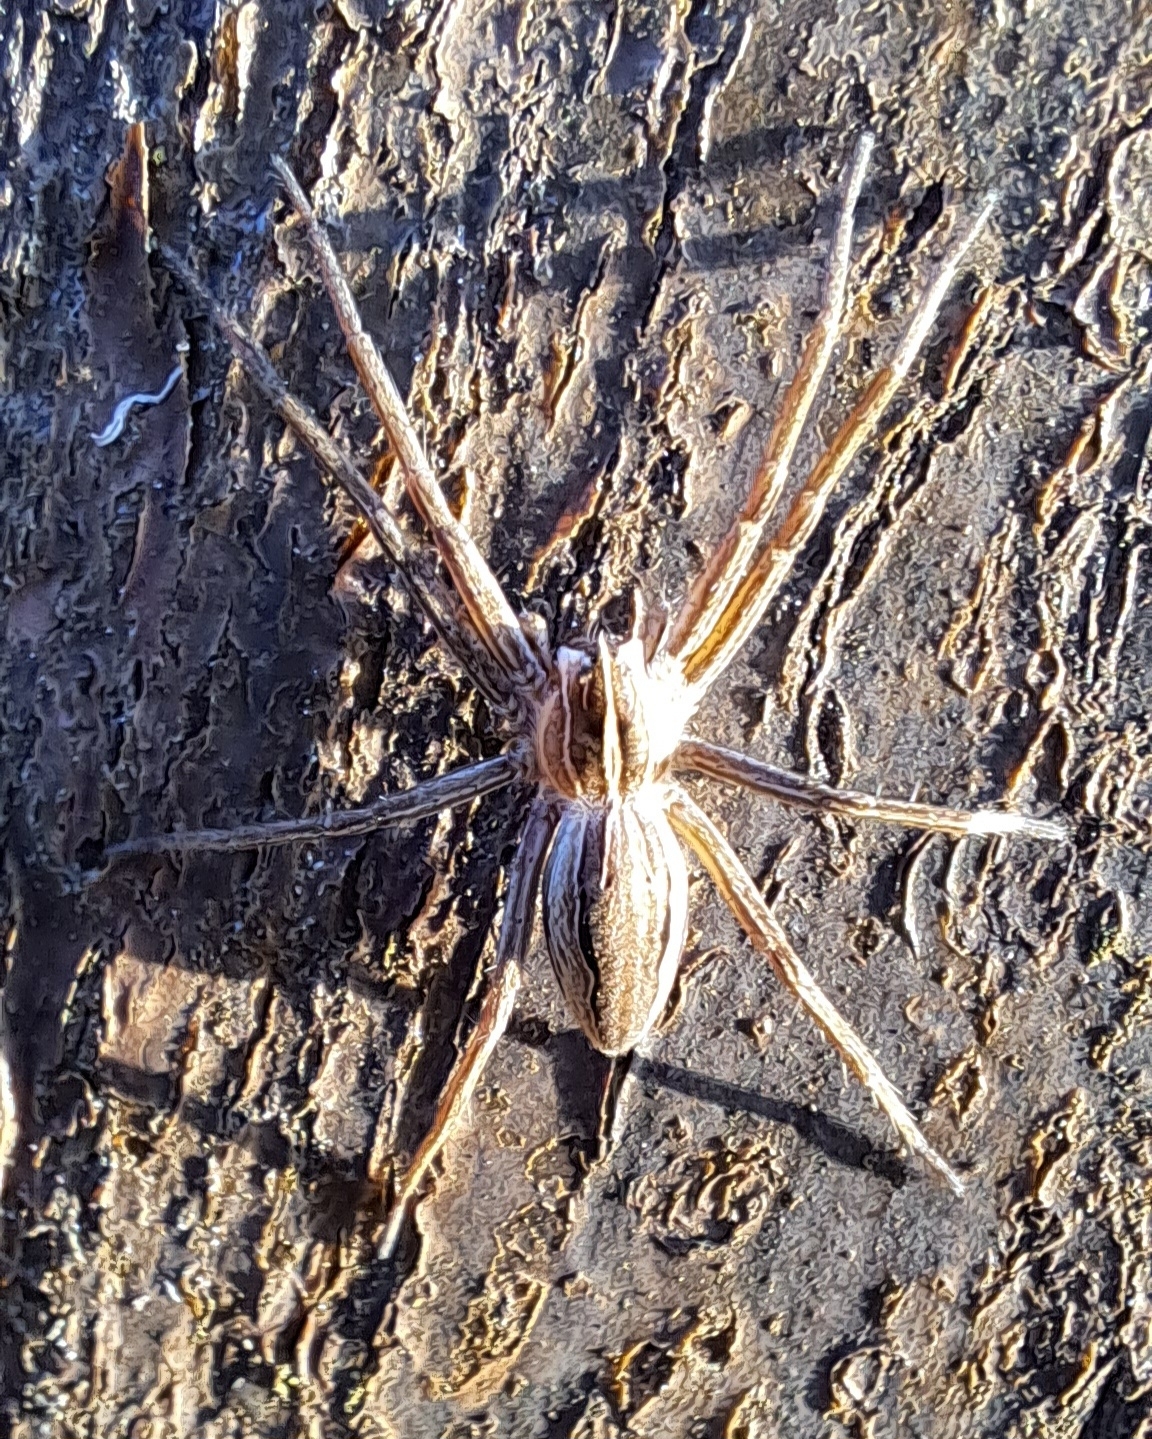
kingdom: Animalia
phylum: Arthropoda
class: Arachnida
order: Araneae
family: Pisauridae
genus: Pisaura
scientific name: Pisaura mirabilis
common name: Tent spider
